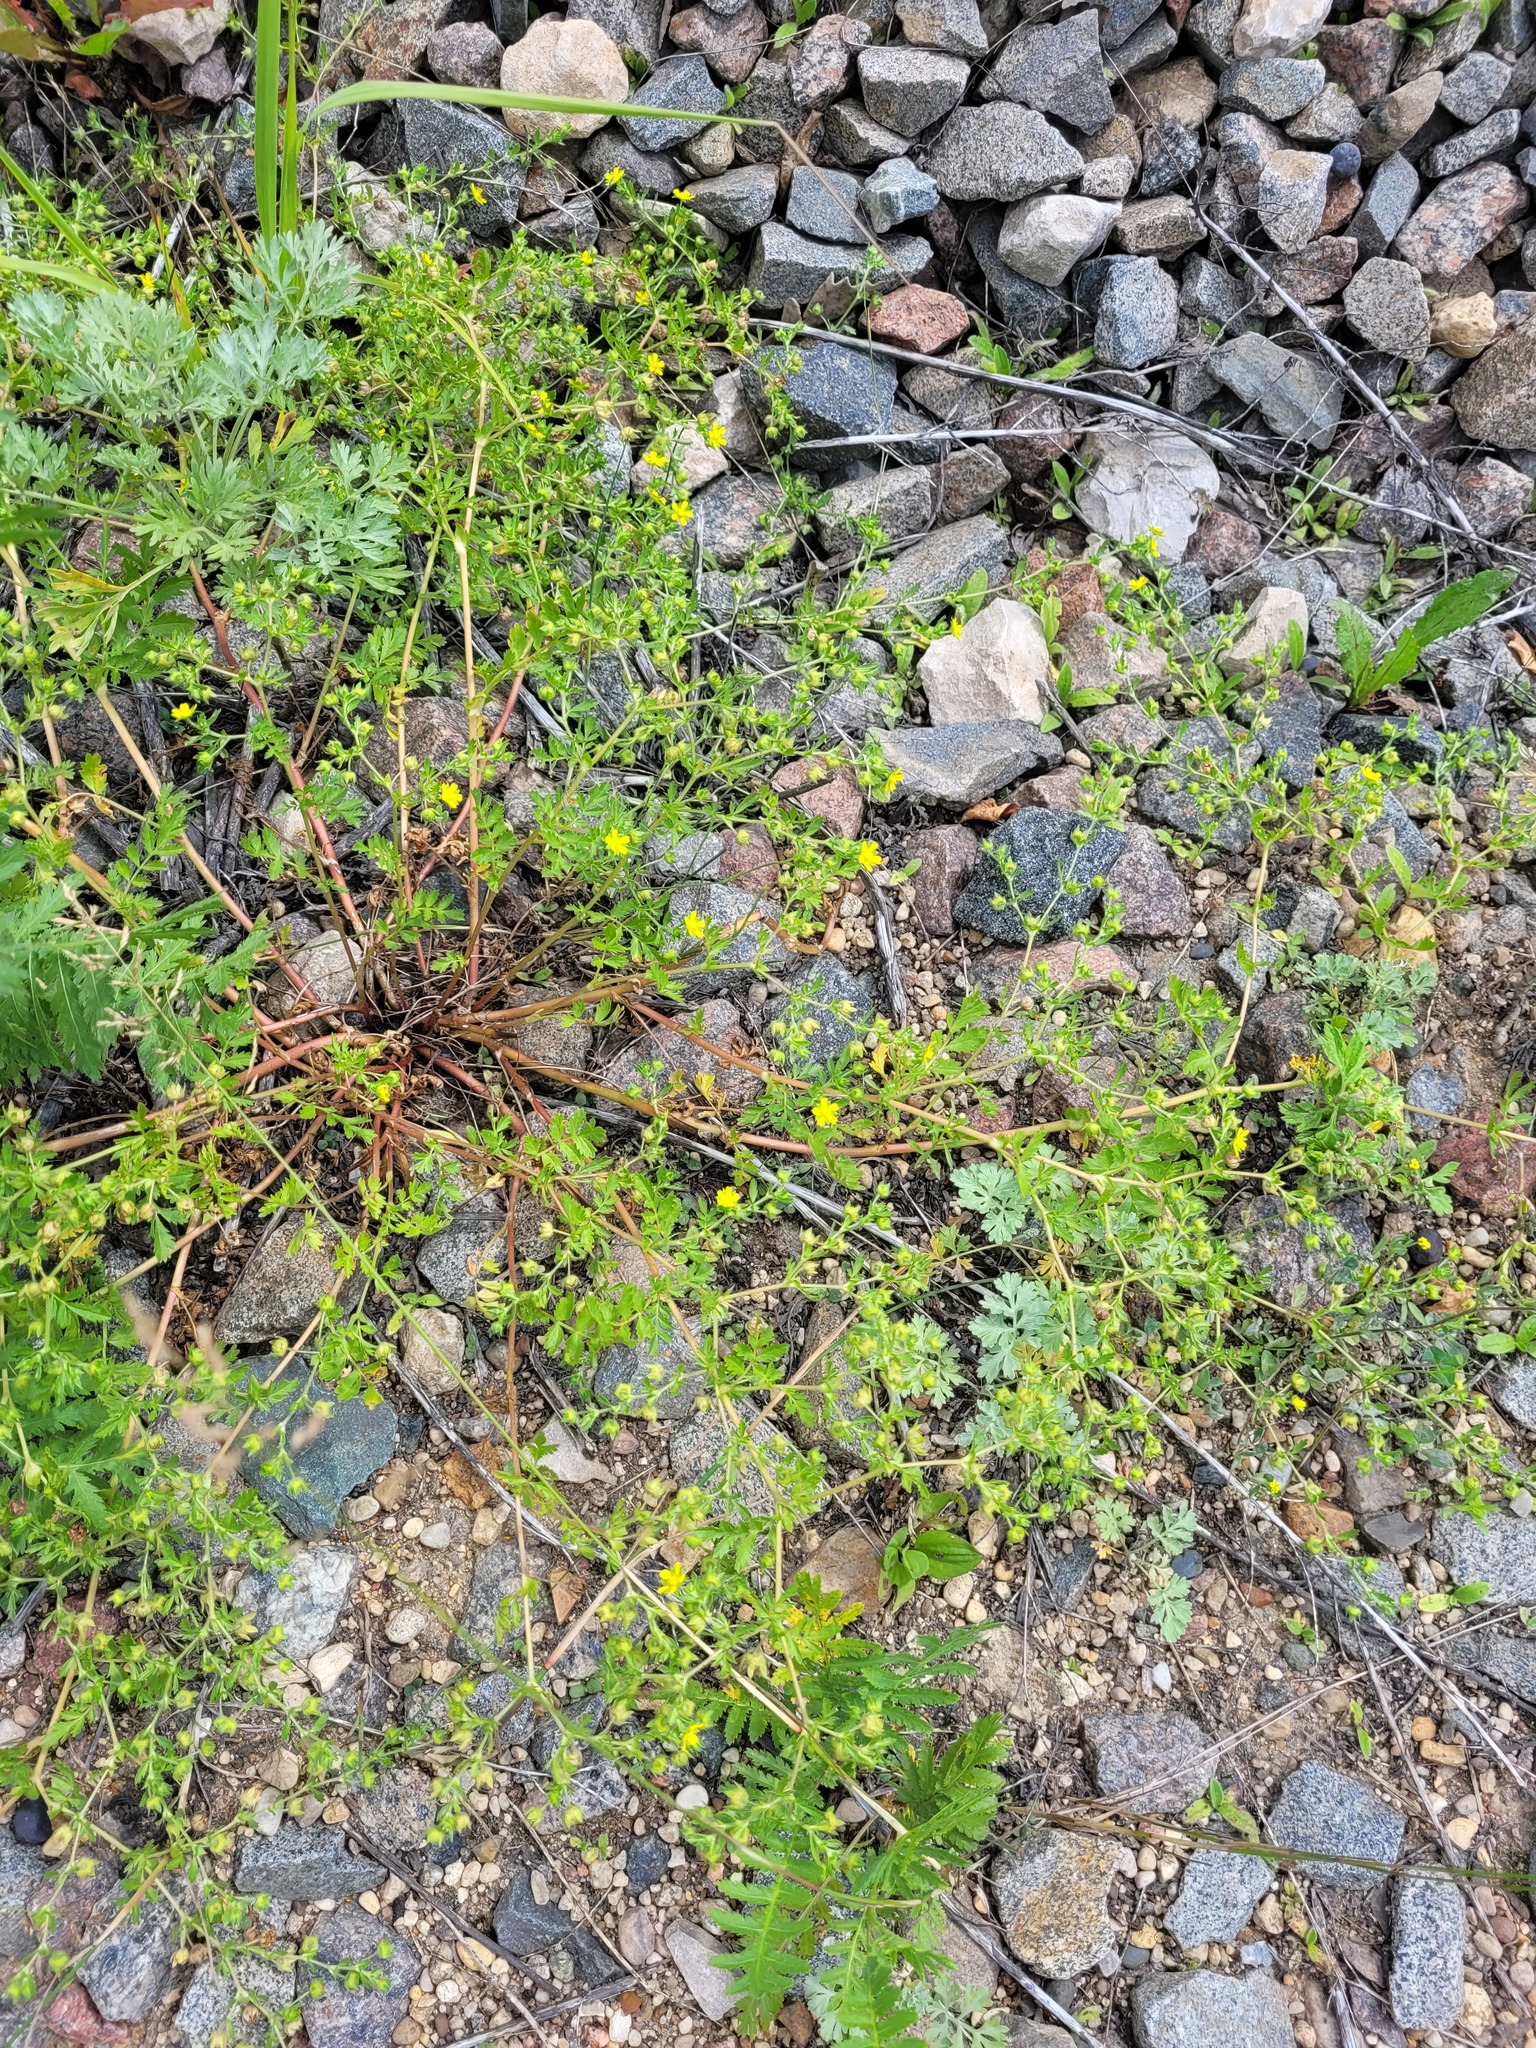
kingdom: Plantae
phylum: Tracheophyta
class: Magnoliopsida
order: Rosales
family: Rosaceae
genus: Potentilla
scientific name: Potentilla supina
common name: Prostrate cinquefoil
